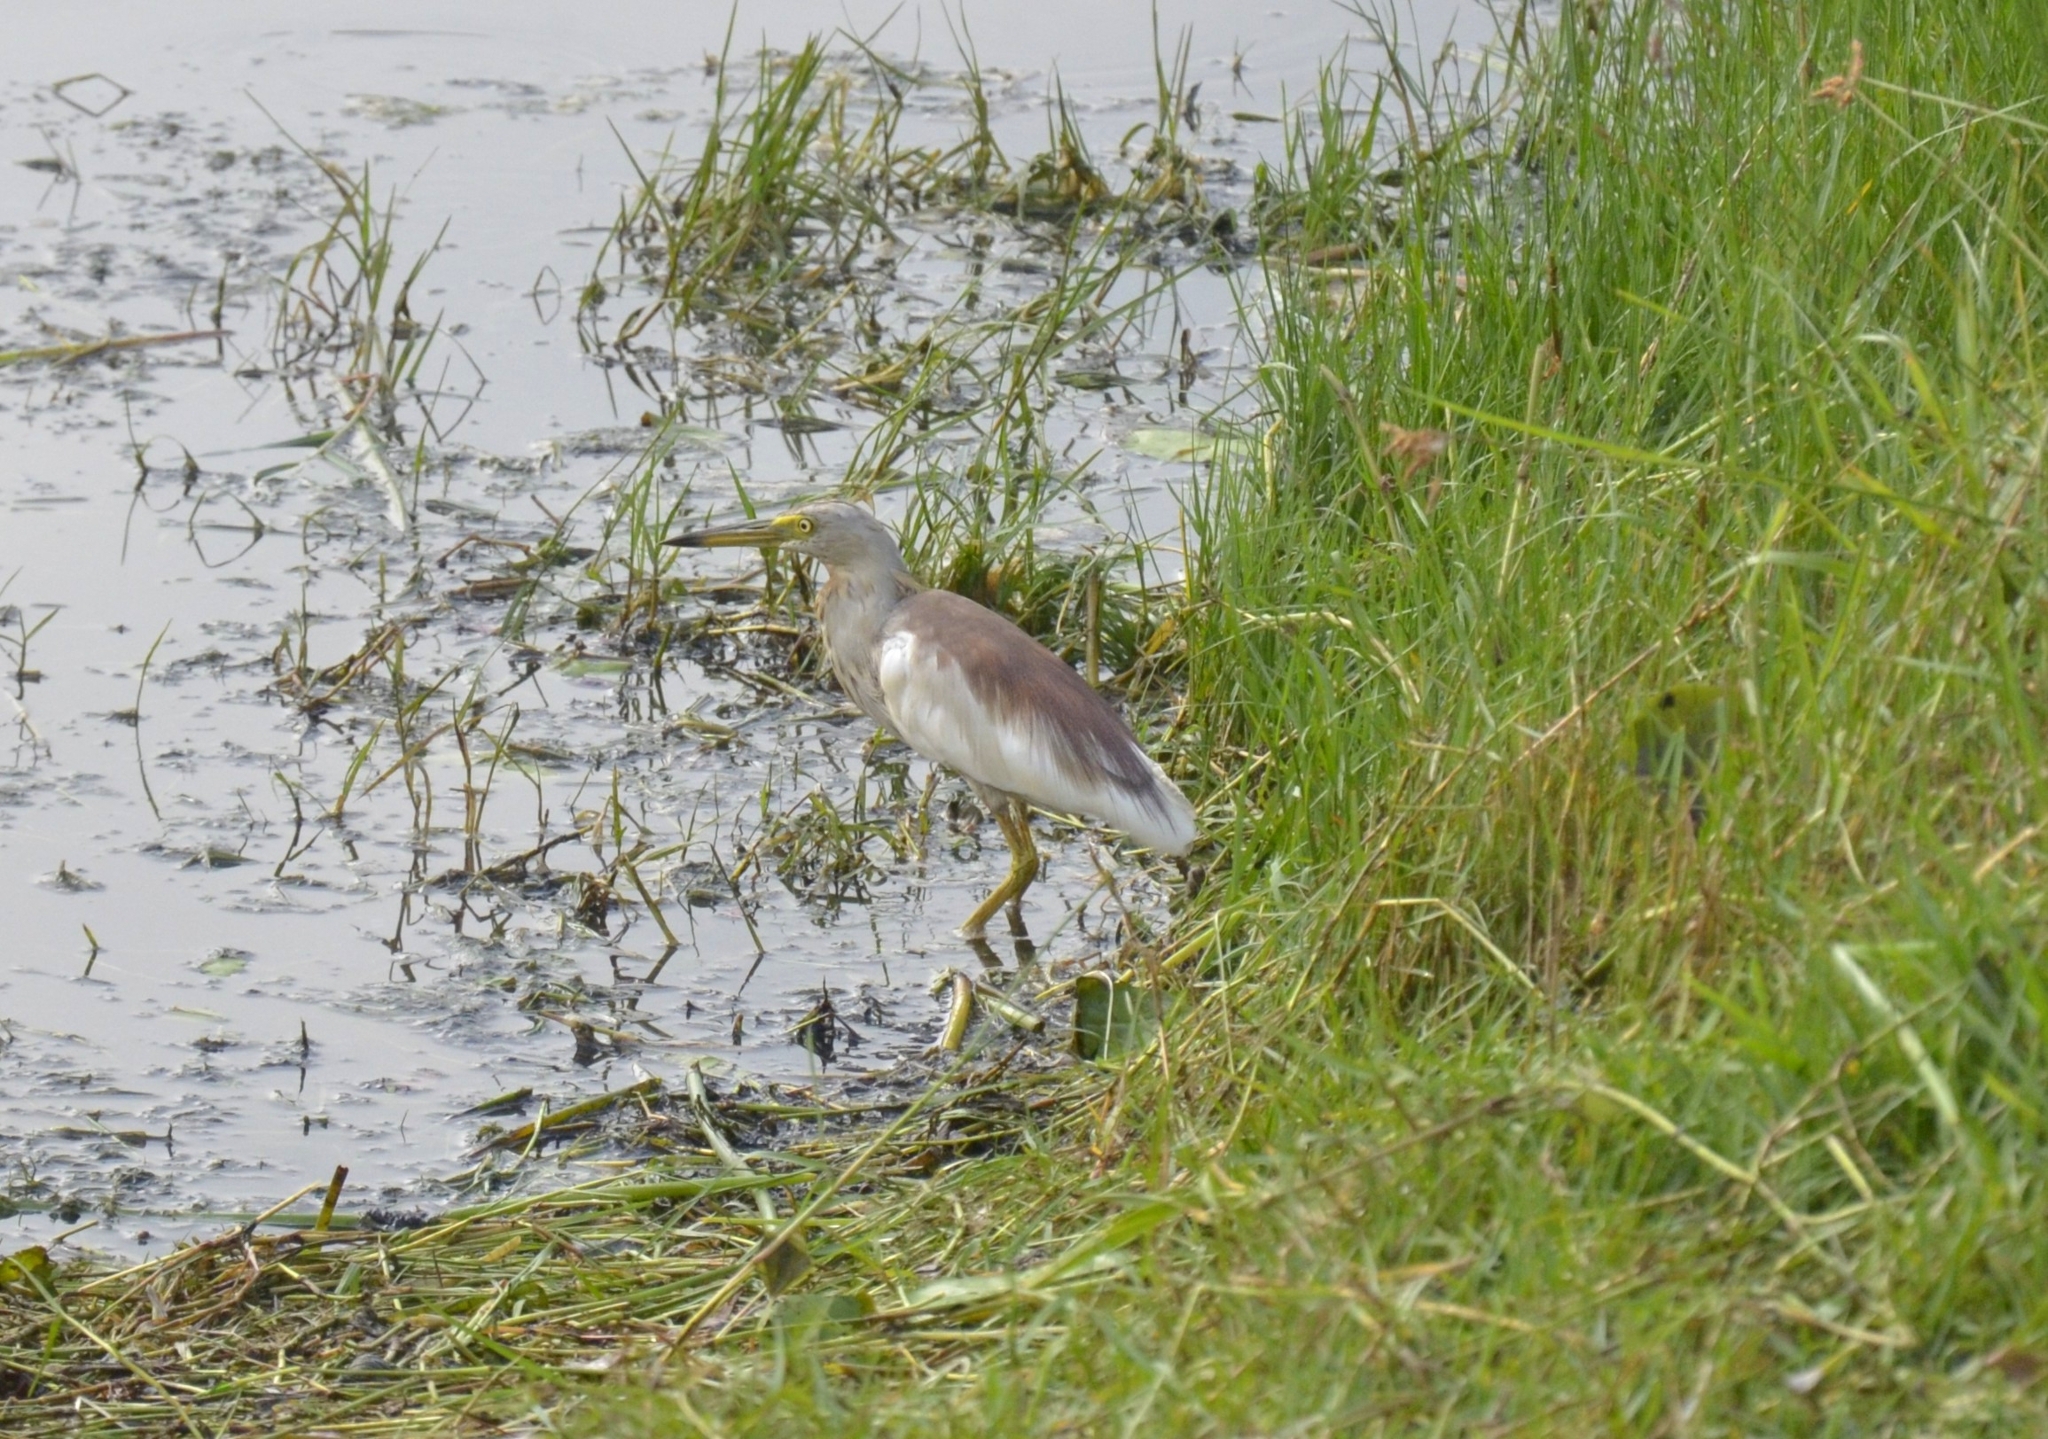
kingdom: Animalia
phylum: Chordata
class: Aves
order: Pelecaniformes
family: Ardeidae
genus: Ardeola
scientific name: Ardeola grayii
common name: Indian pond heron
